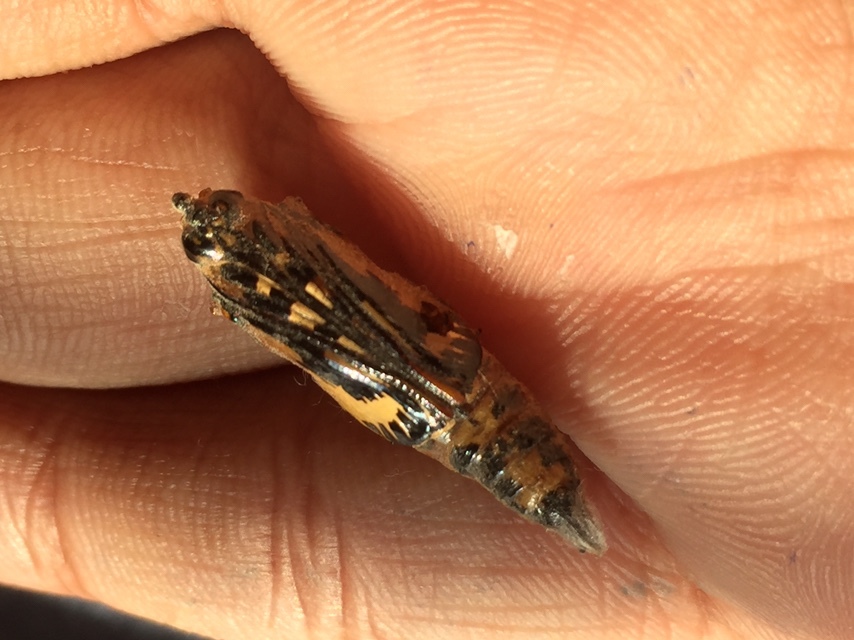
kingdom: Animalia
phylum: Arthropoda
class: Insecta
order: Lepidoptera
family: Pieridae
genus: Delias
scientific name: Delias eucharis
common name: Common jezebel
